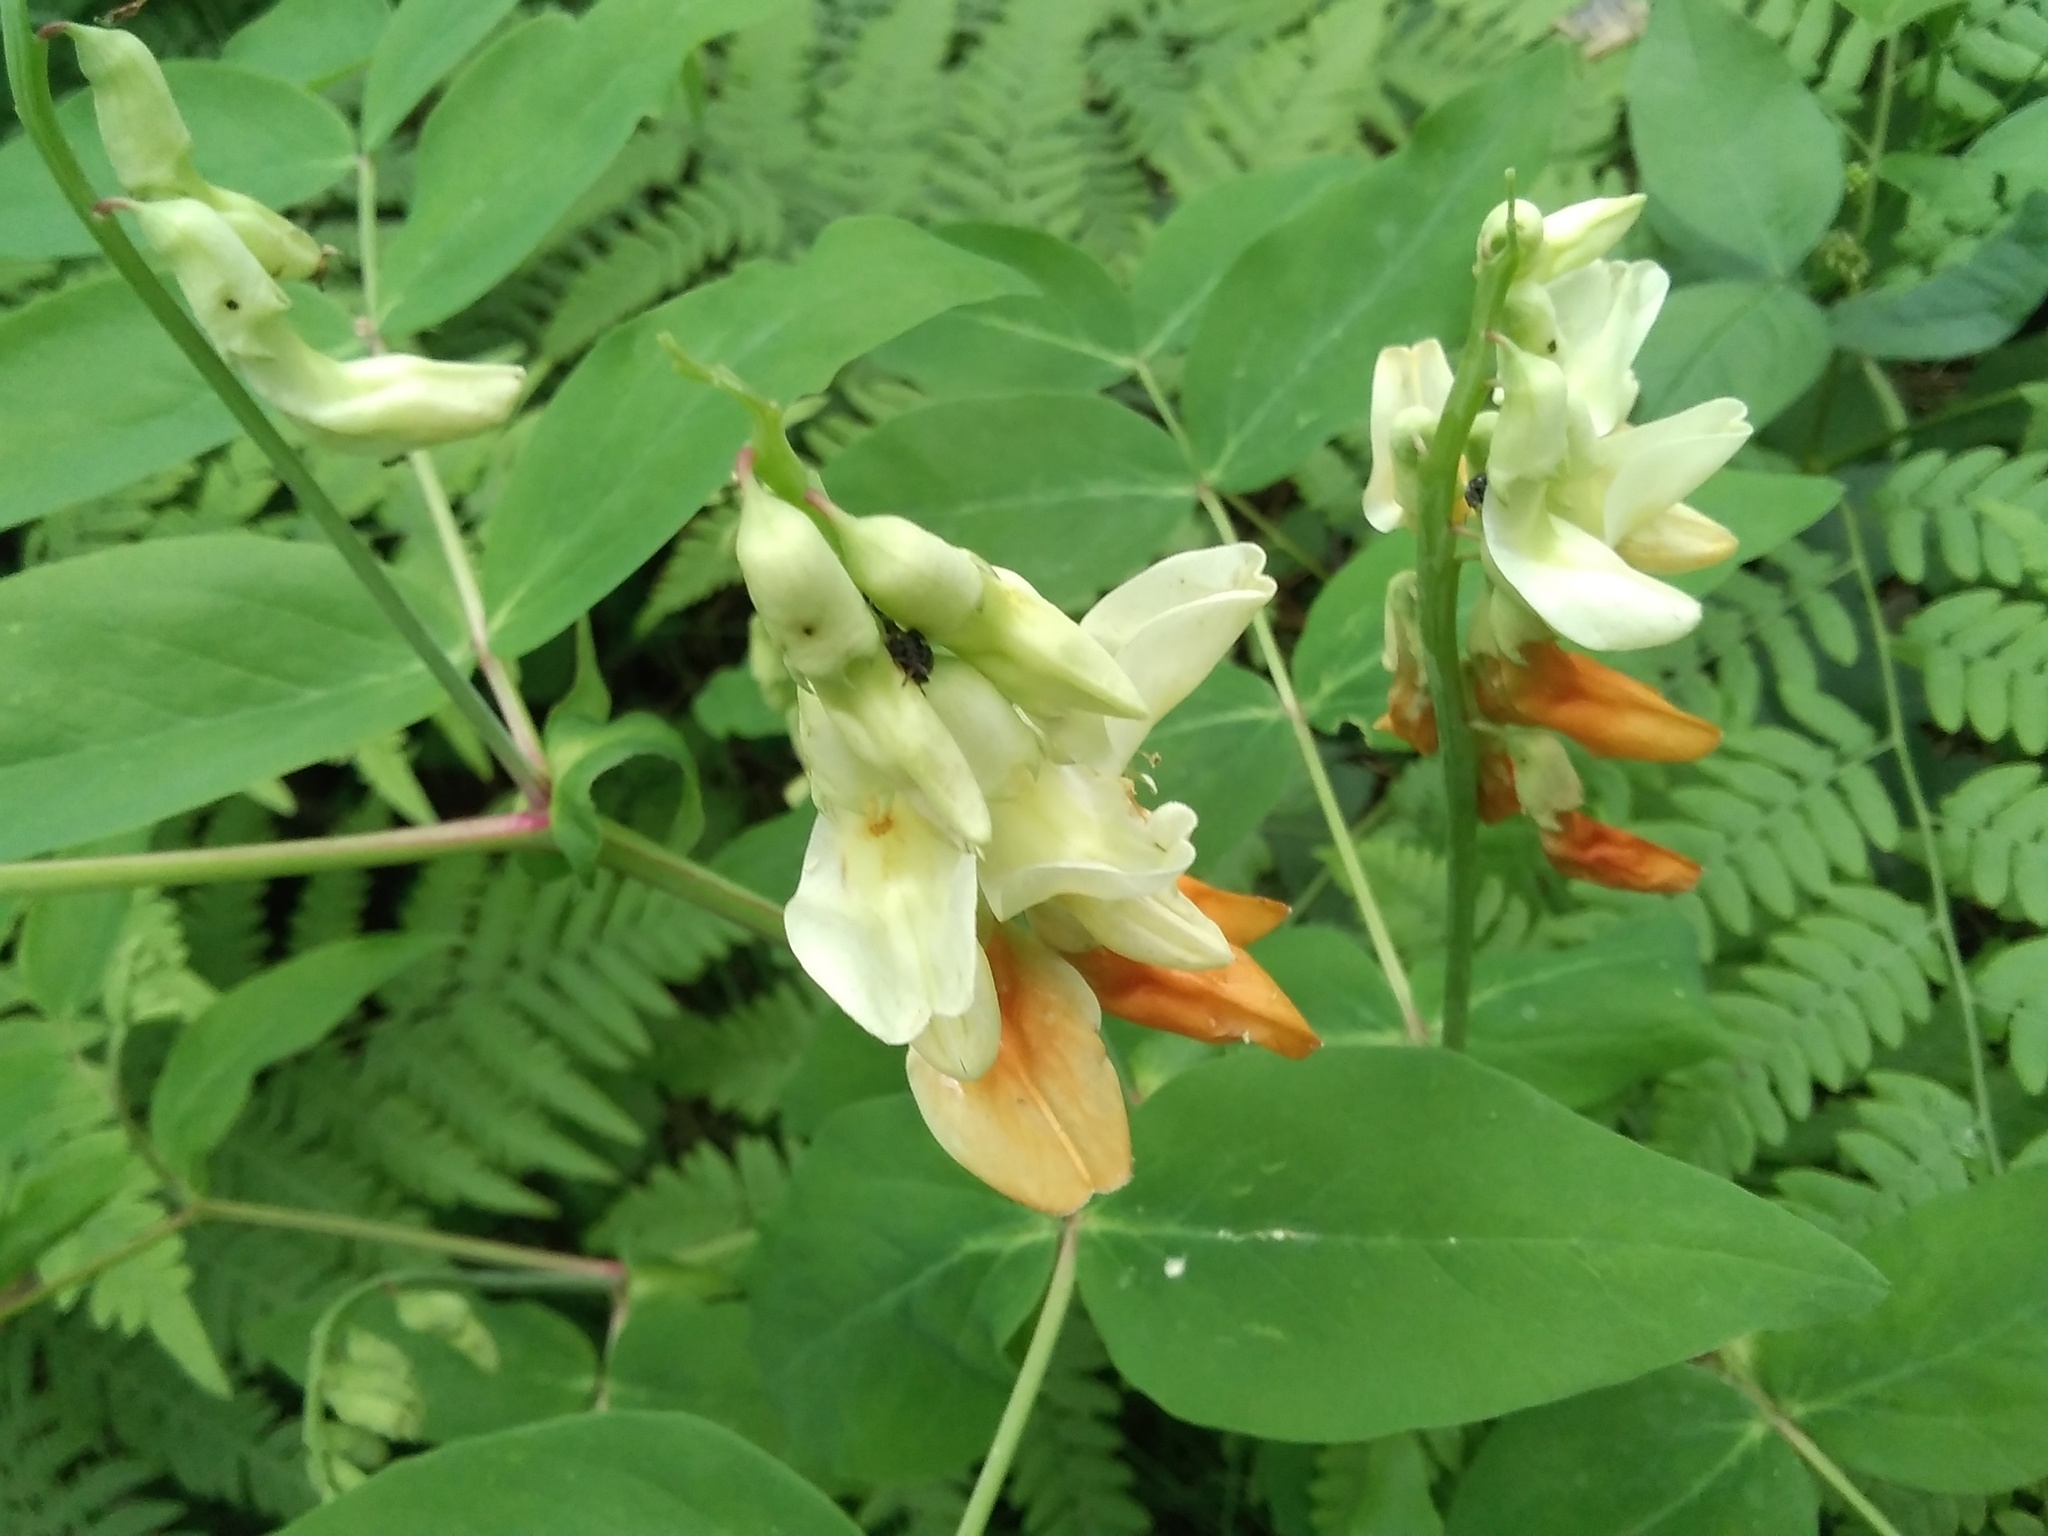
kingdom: Plantae
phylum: Tracheophyta
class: Magnoliopsida
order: Fabales
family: Fabaceae
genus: Lathyrus
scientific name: Lathyrus gmelinii
